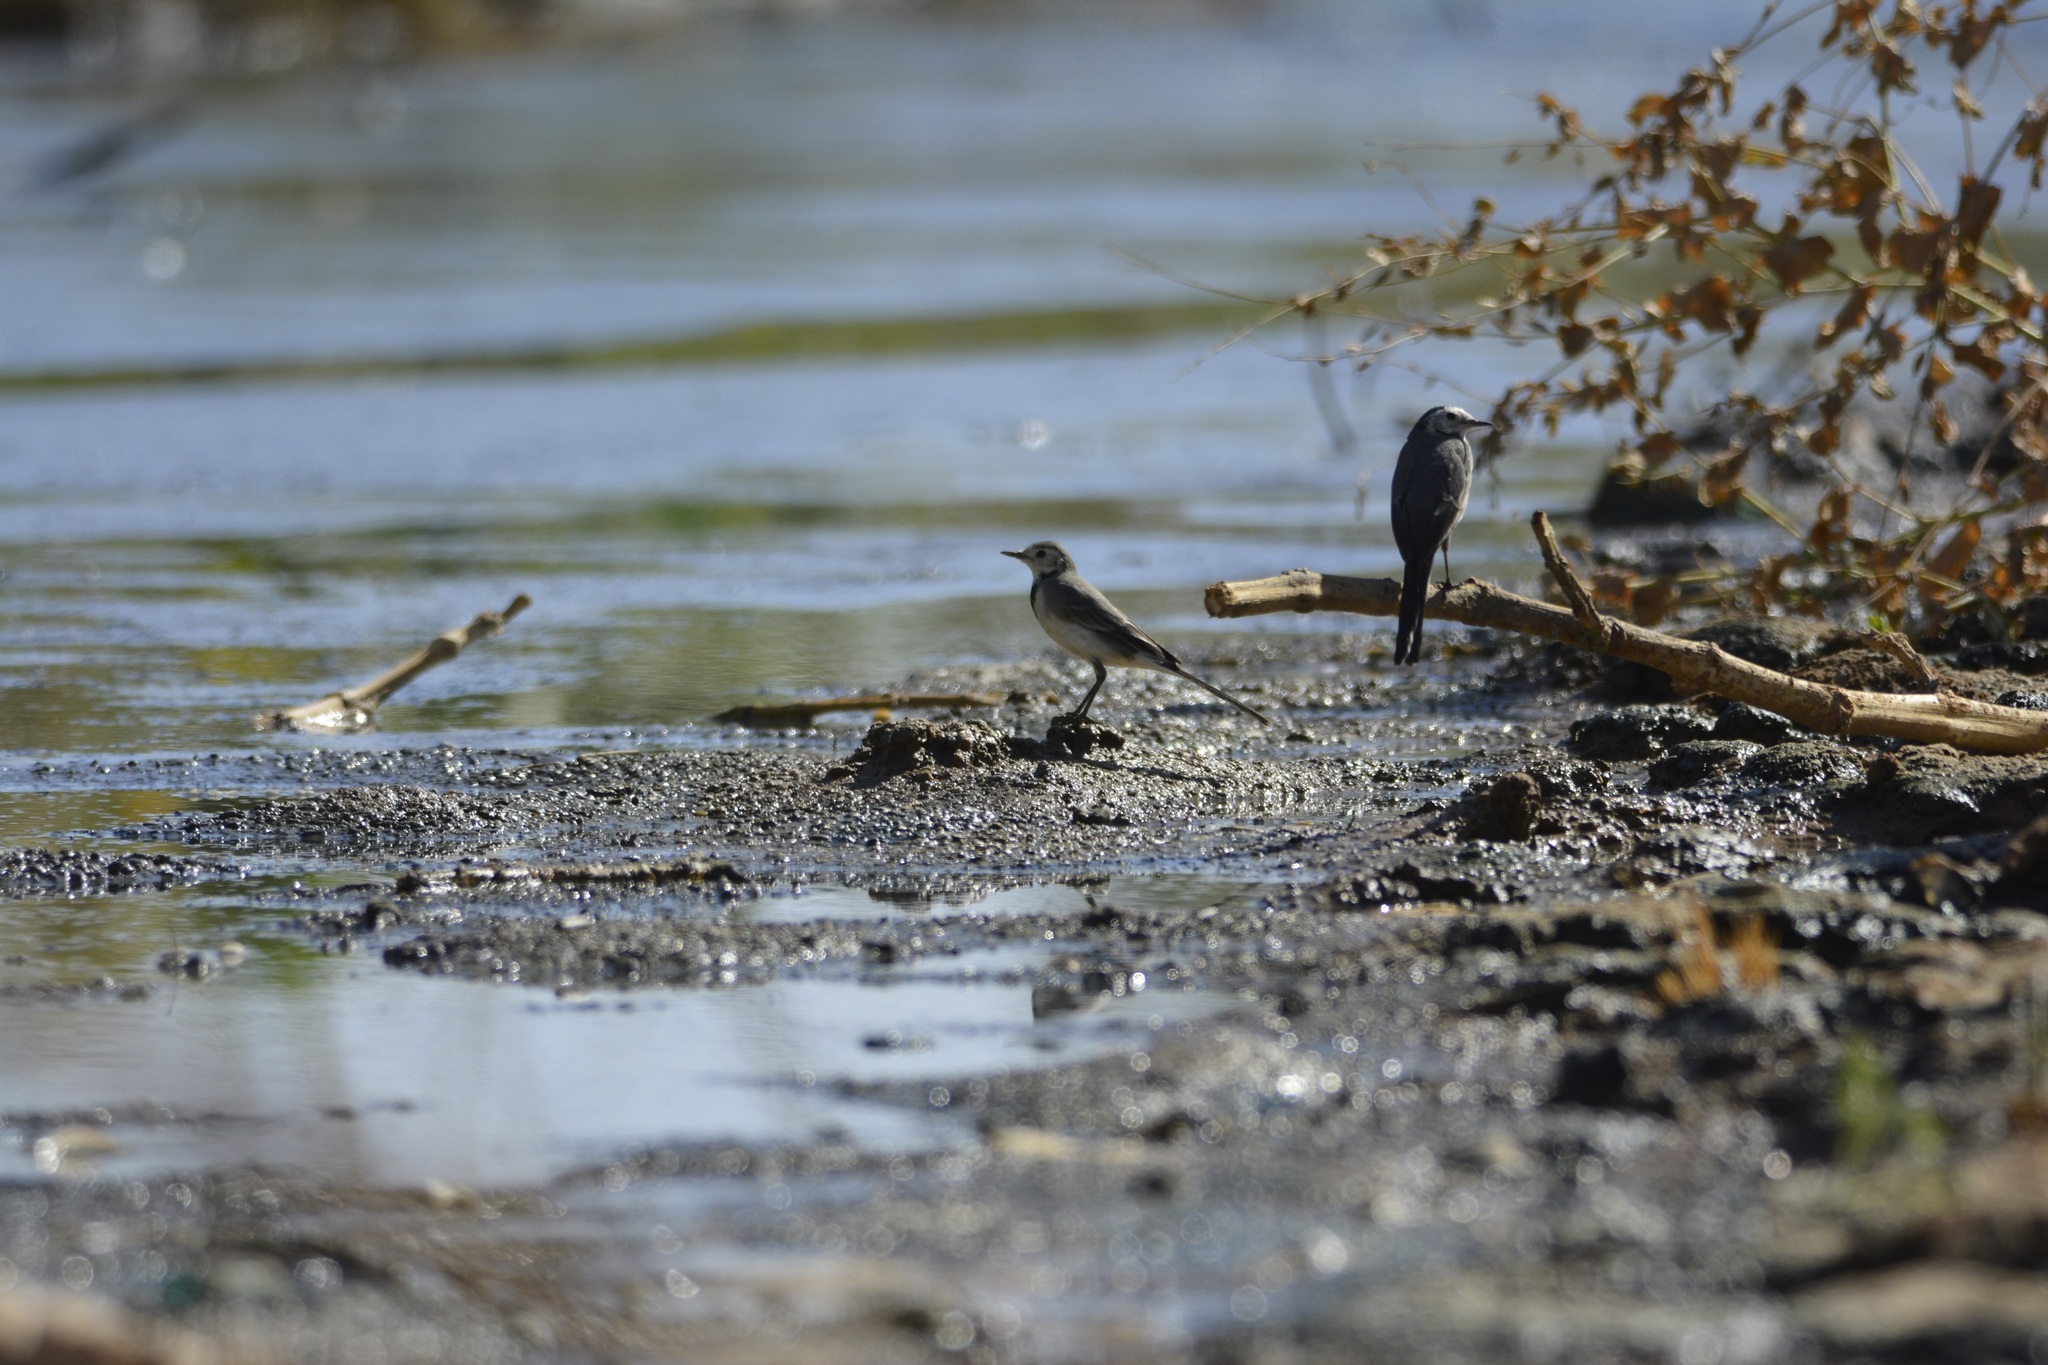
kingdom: Animalia
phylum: Chordata
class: Aves
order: Passeriformes
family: Motacillidae
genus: Motacilla
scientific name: Motacilla alba
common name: White wagtail
